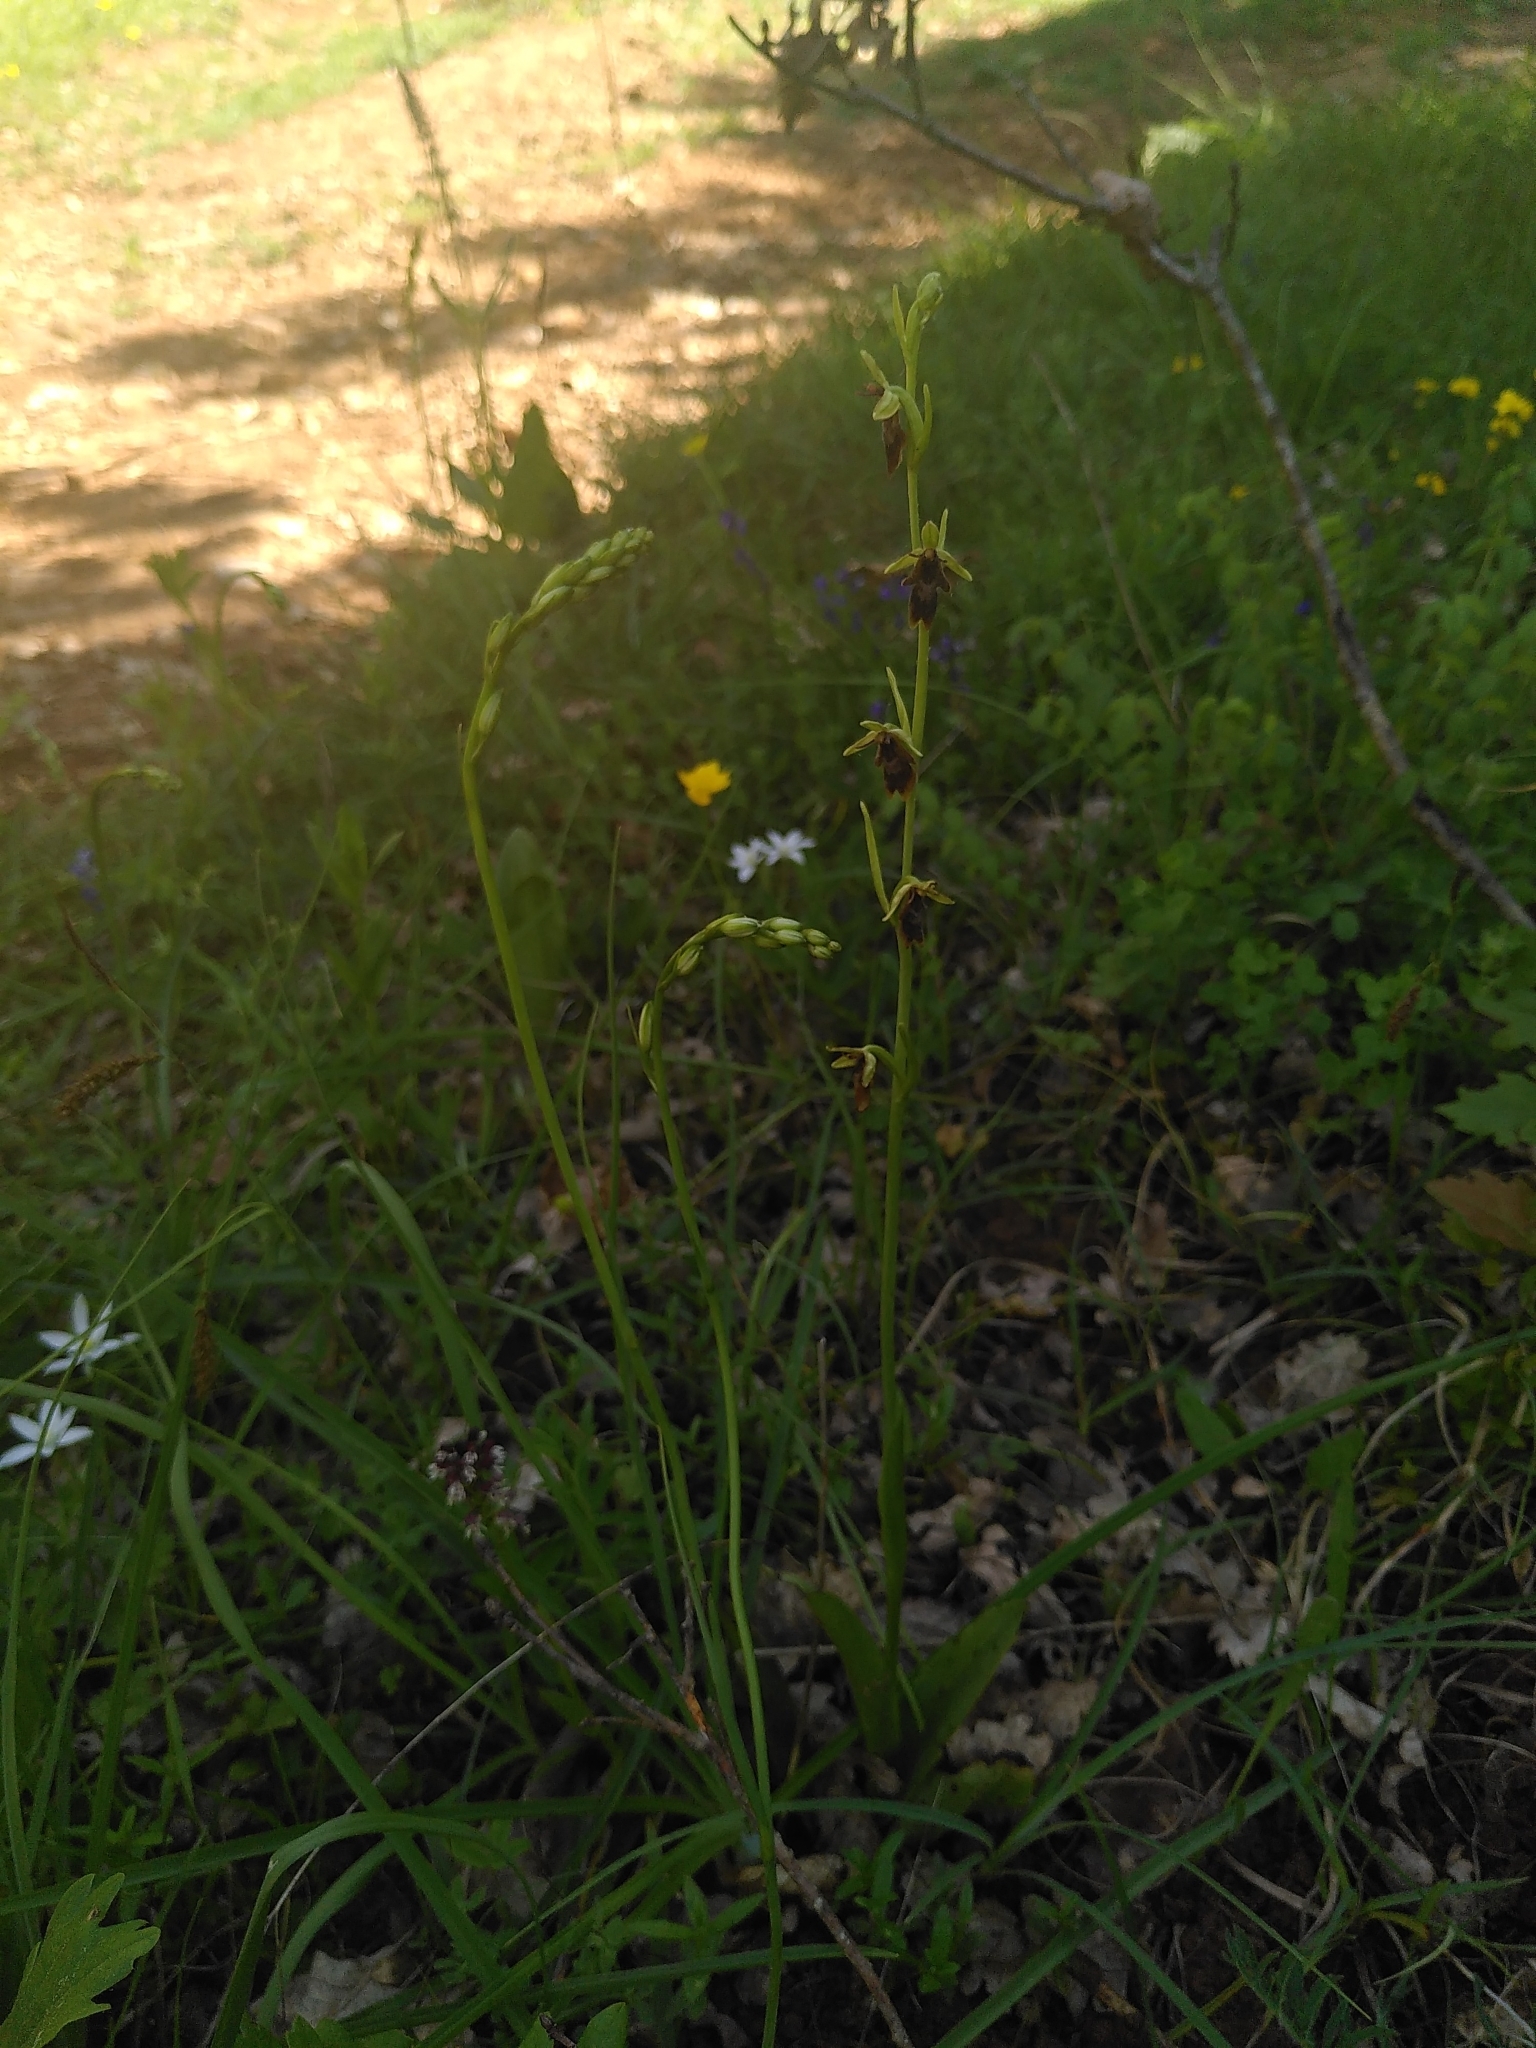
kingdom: Plantae
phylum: Tracheophyta
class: Liliopsida
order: Asparagales
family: Orchidaceae
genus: Ophrys
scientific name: Ophrys insectifera
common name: Fly orchid
